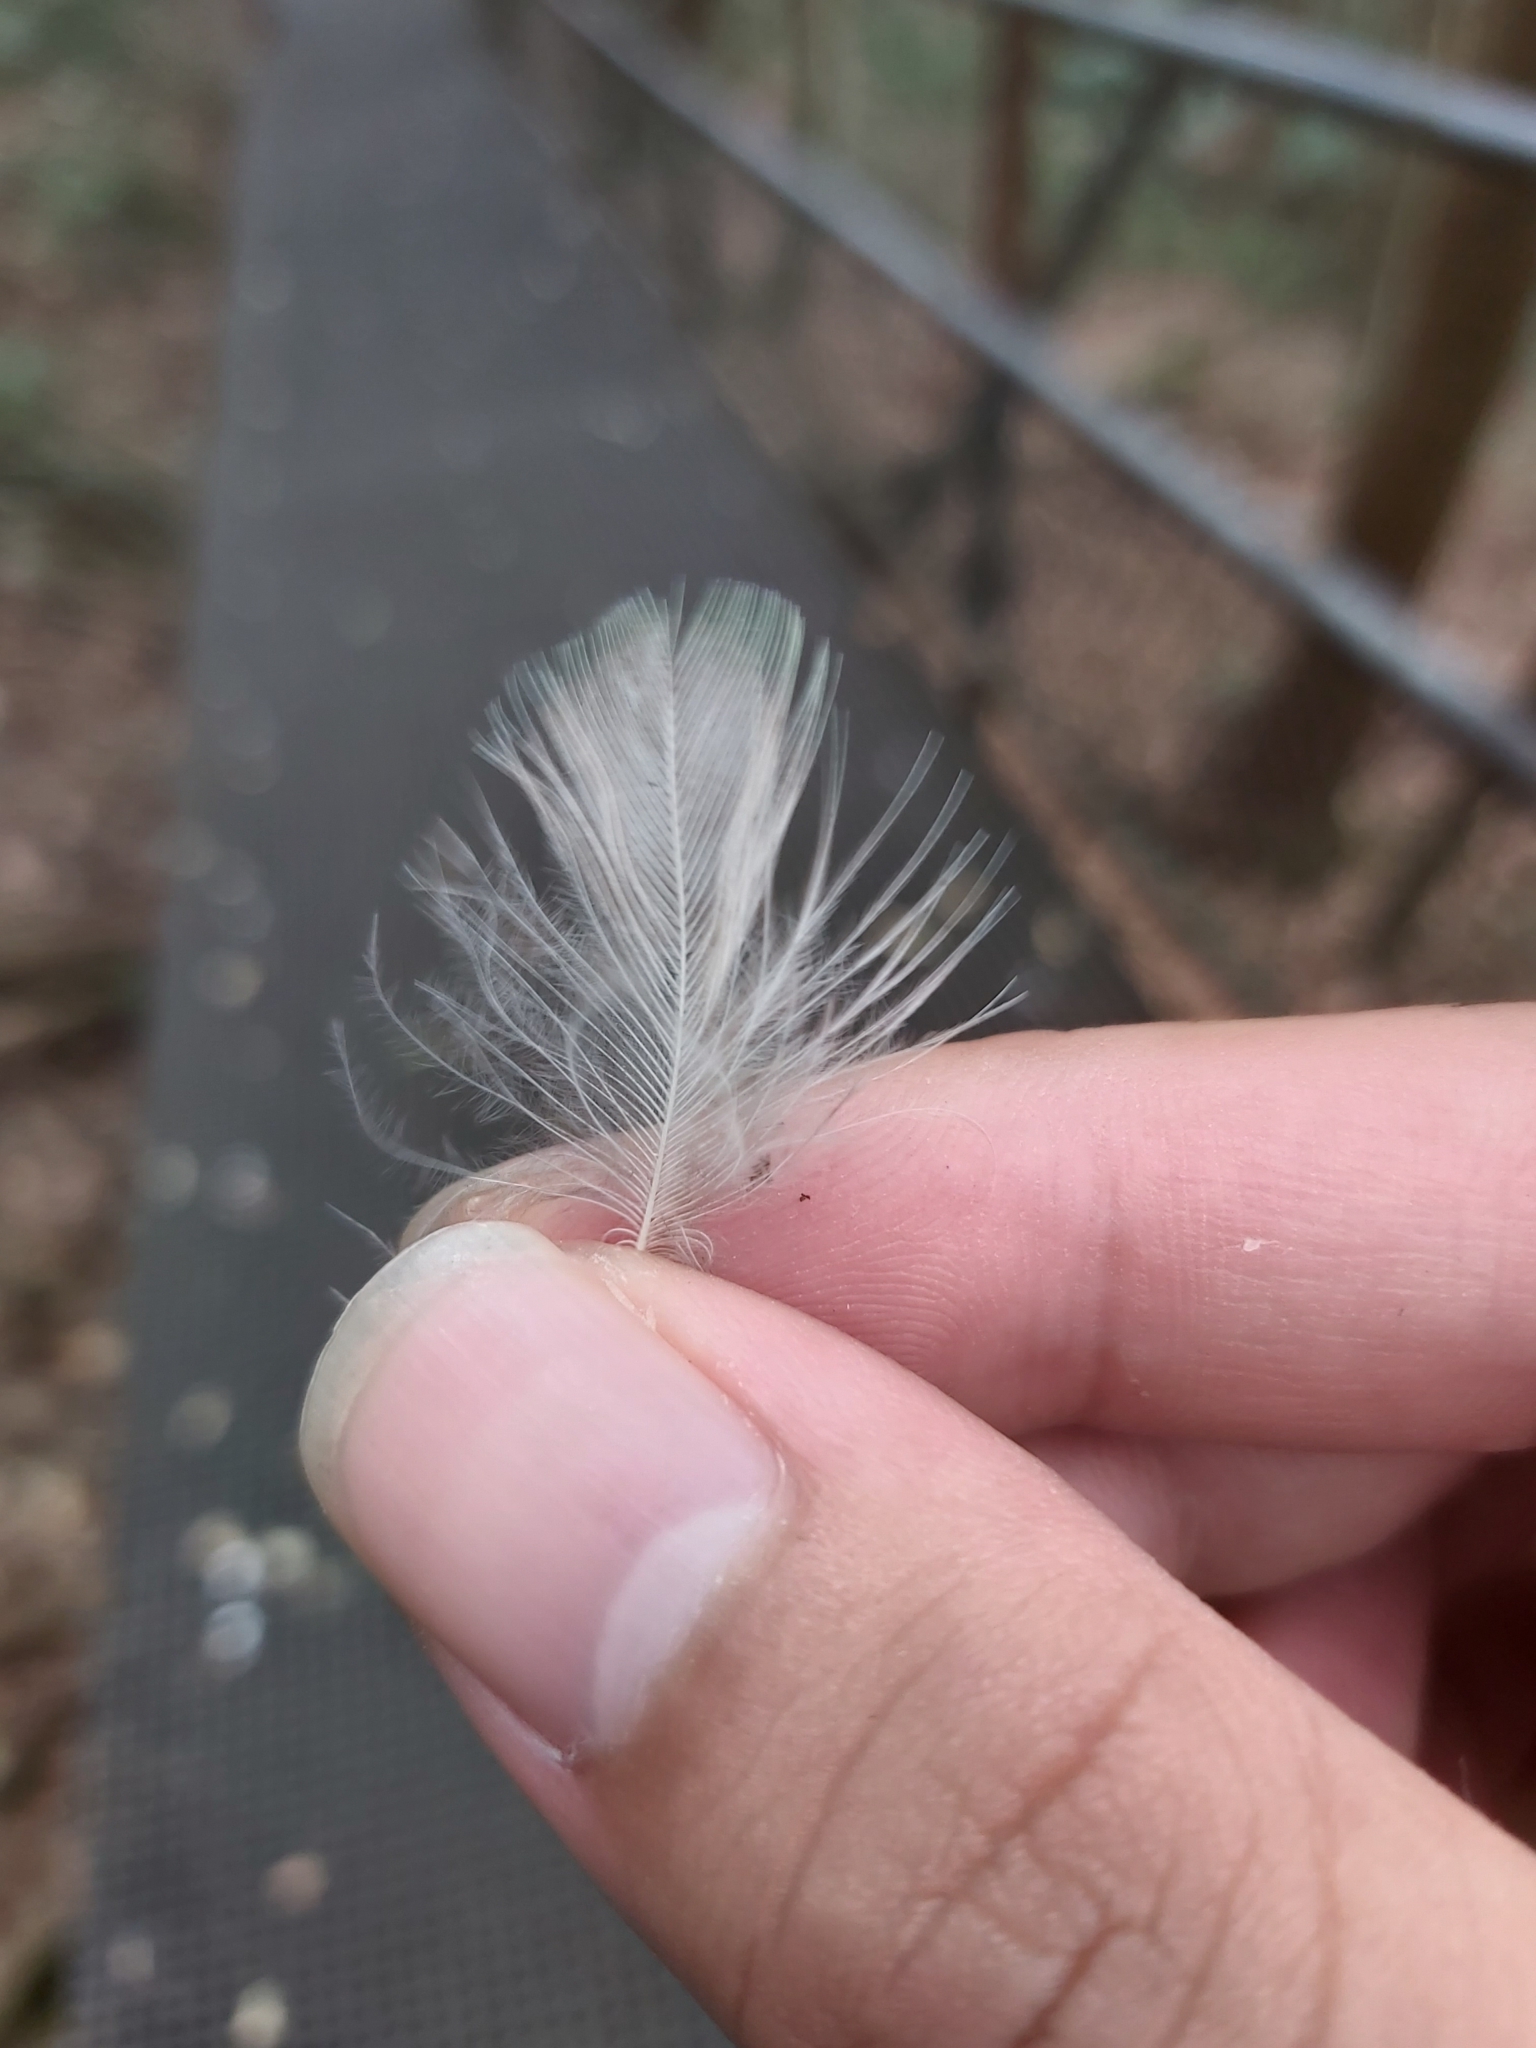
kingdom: Animalia
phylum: Chordata
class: Aves
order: Coraciiformes
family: Alcedinidae
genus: Dacelo
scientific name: Dacelo novaeguineae
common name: Laughing kookaburra
